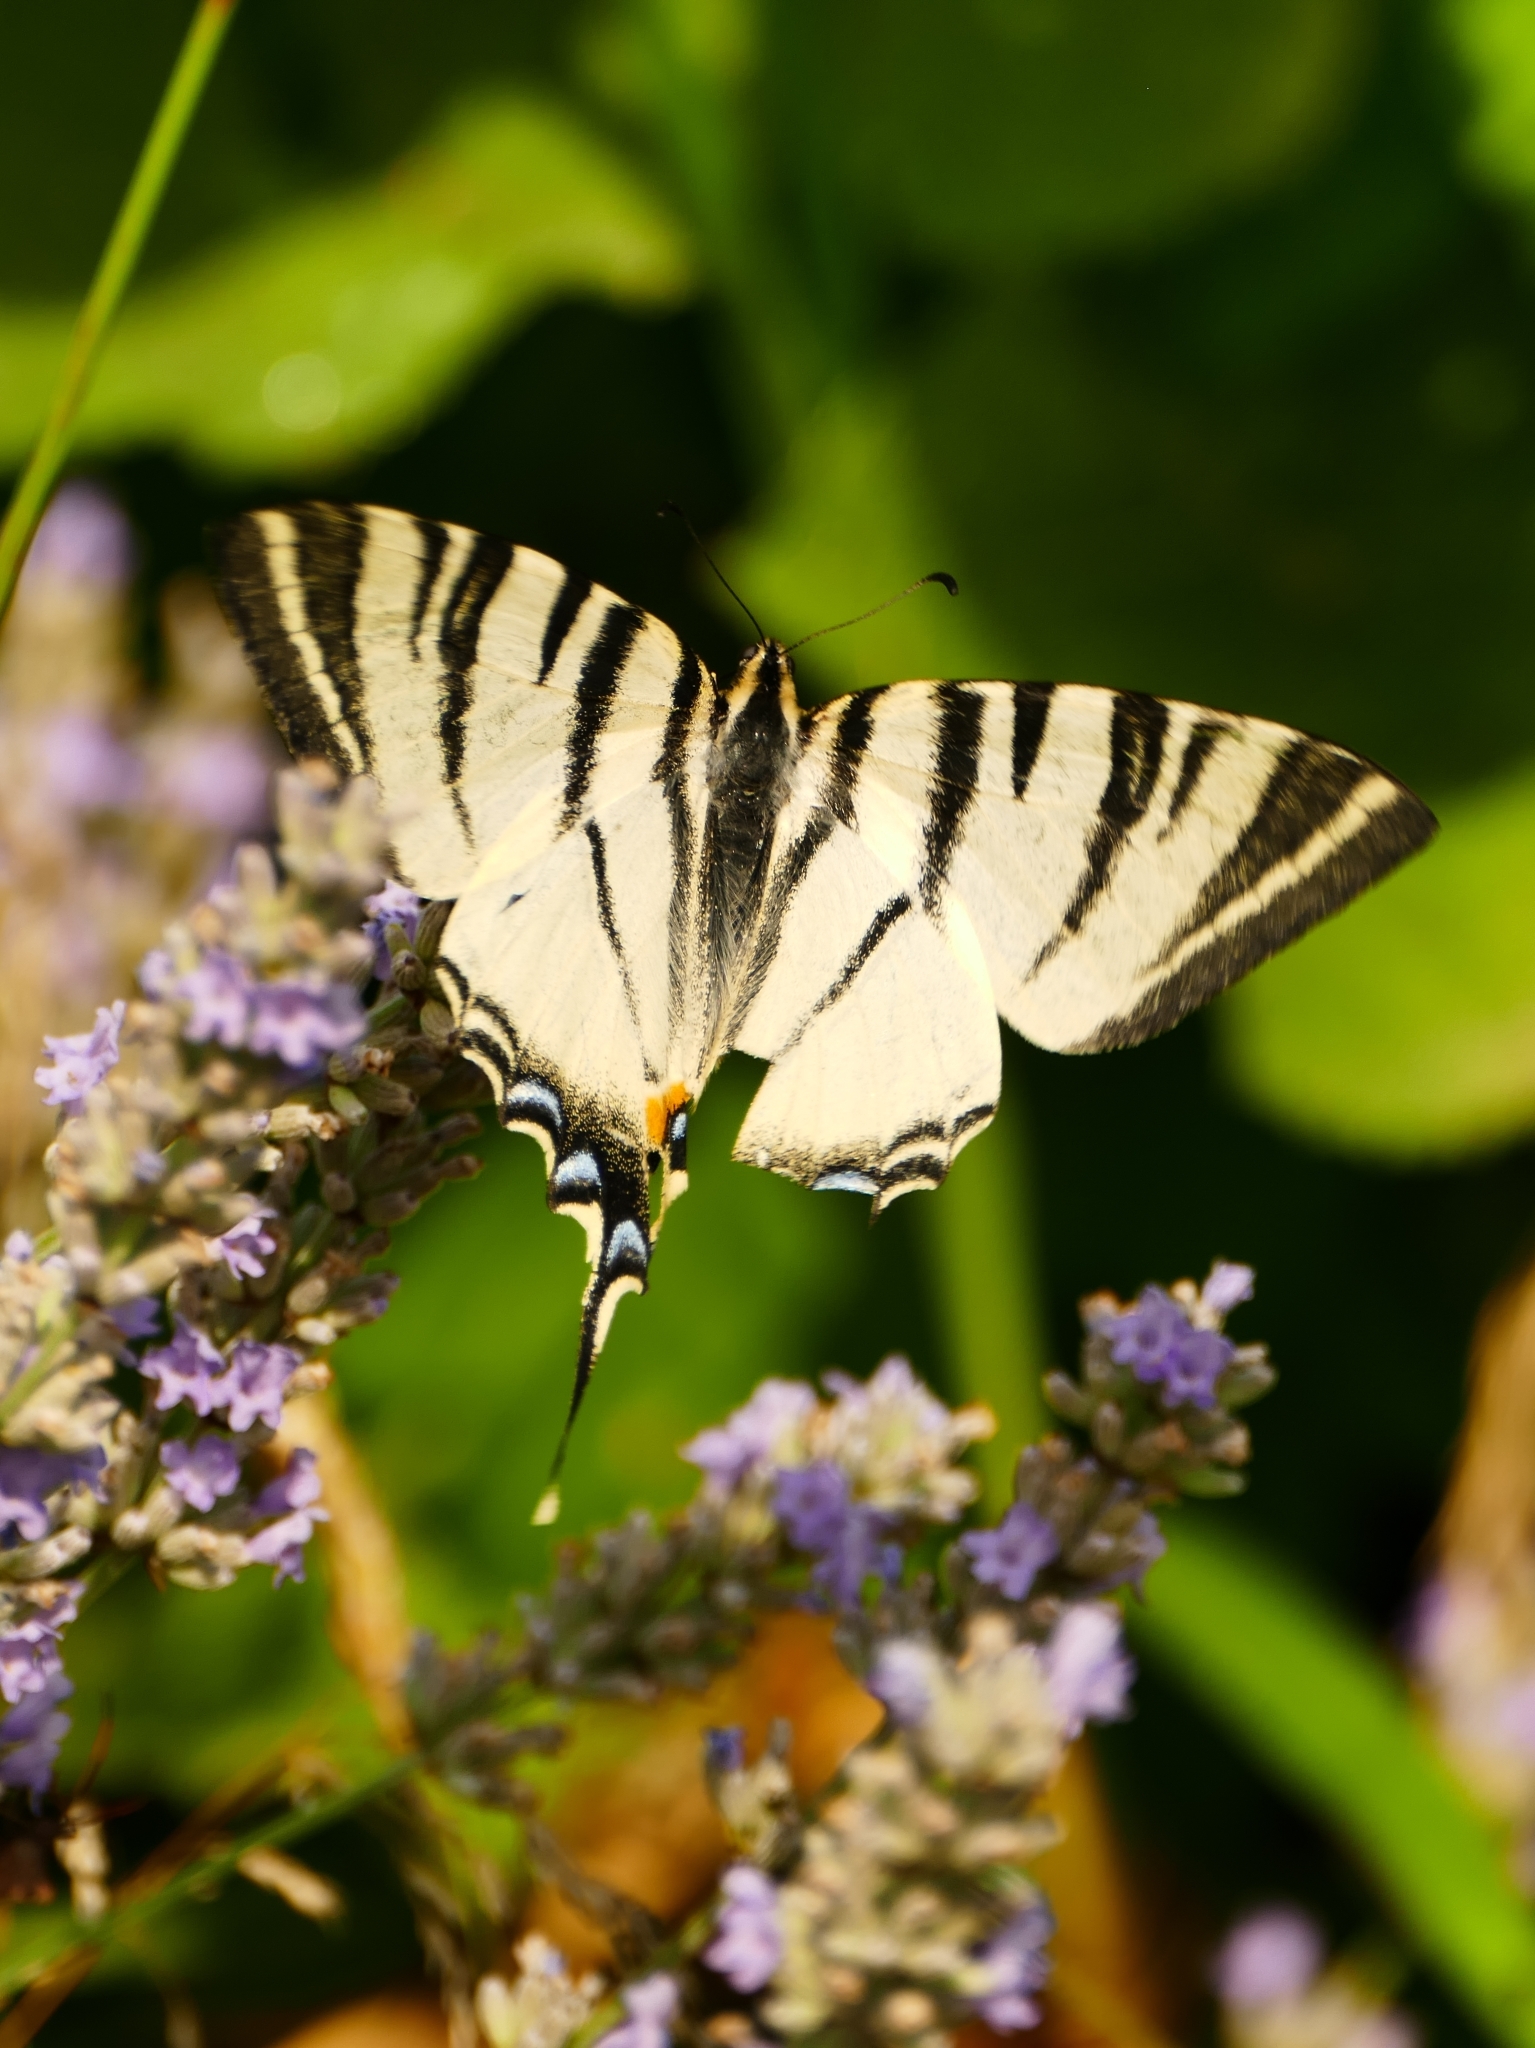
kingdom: Animalia
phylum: Arthropoda
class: Insecta
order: Lepidoptera
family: Papilionidae
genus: Iphiclides
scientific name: Iphiclides podalirius
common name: Scarce swallowtail
